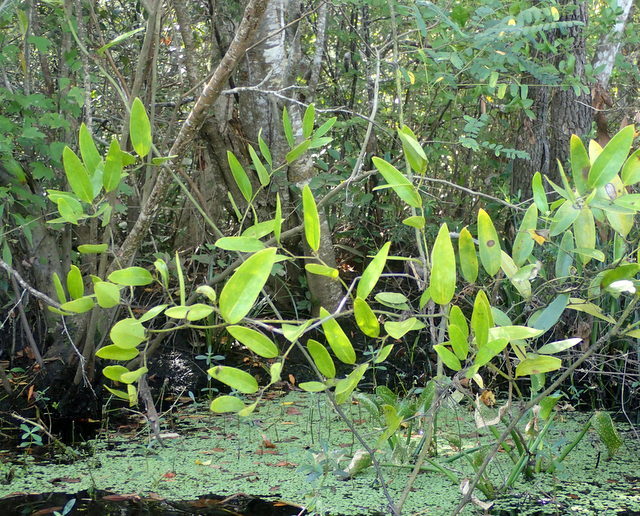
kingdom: Plantae
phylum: Tracheophyta
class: Liliopsida
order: Liliales
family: Smilacaceae
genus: Smilax
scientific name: Smilax laurifolia
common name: Bamboovine
